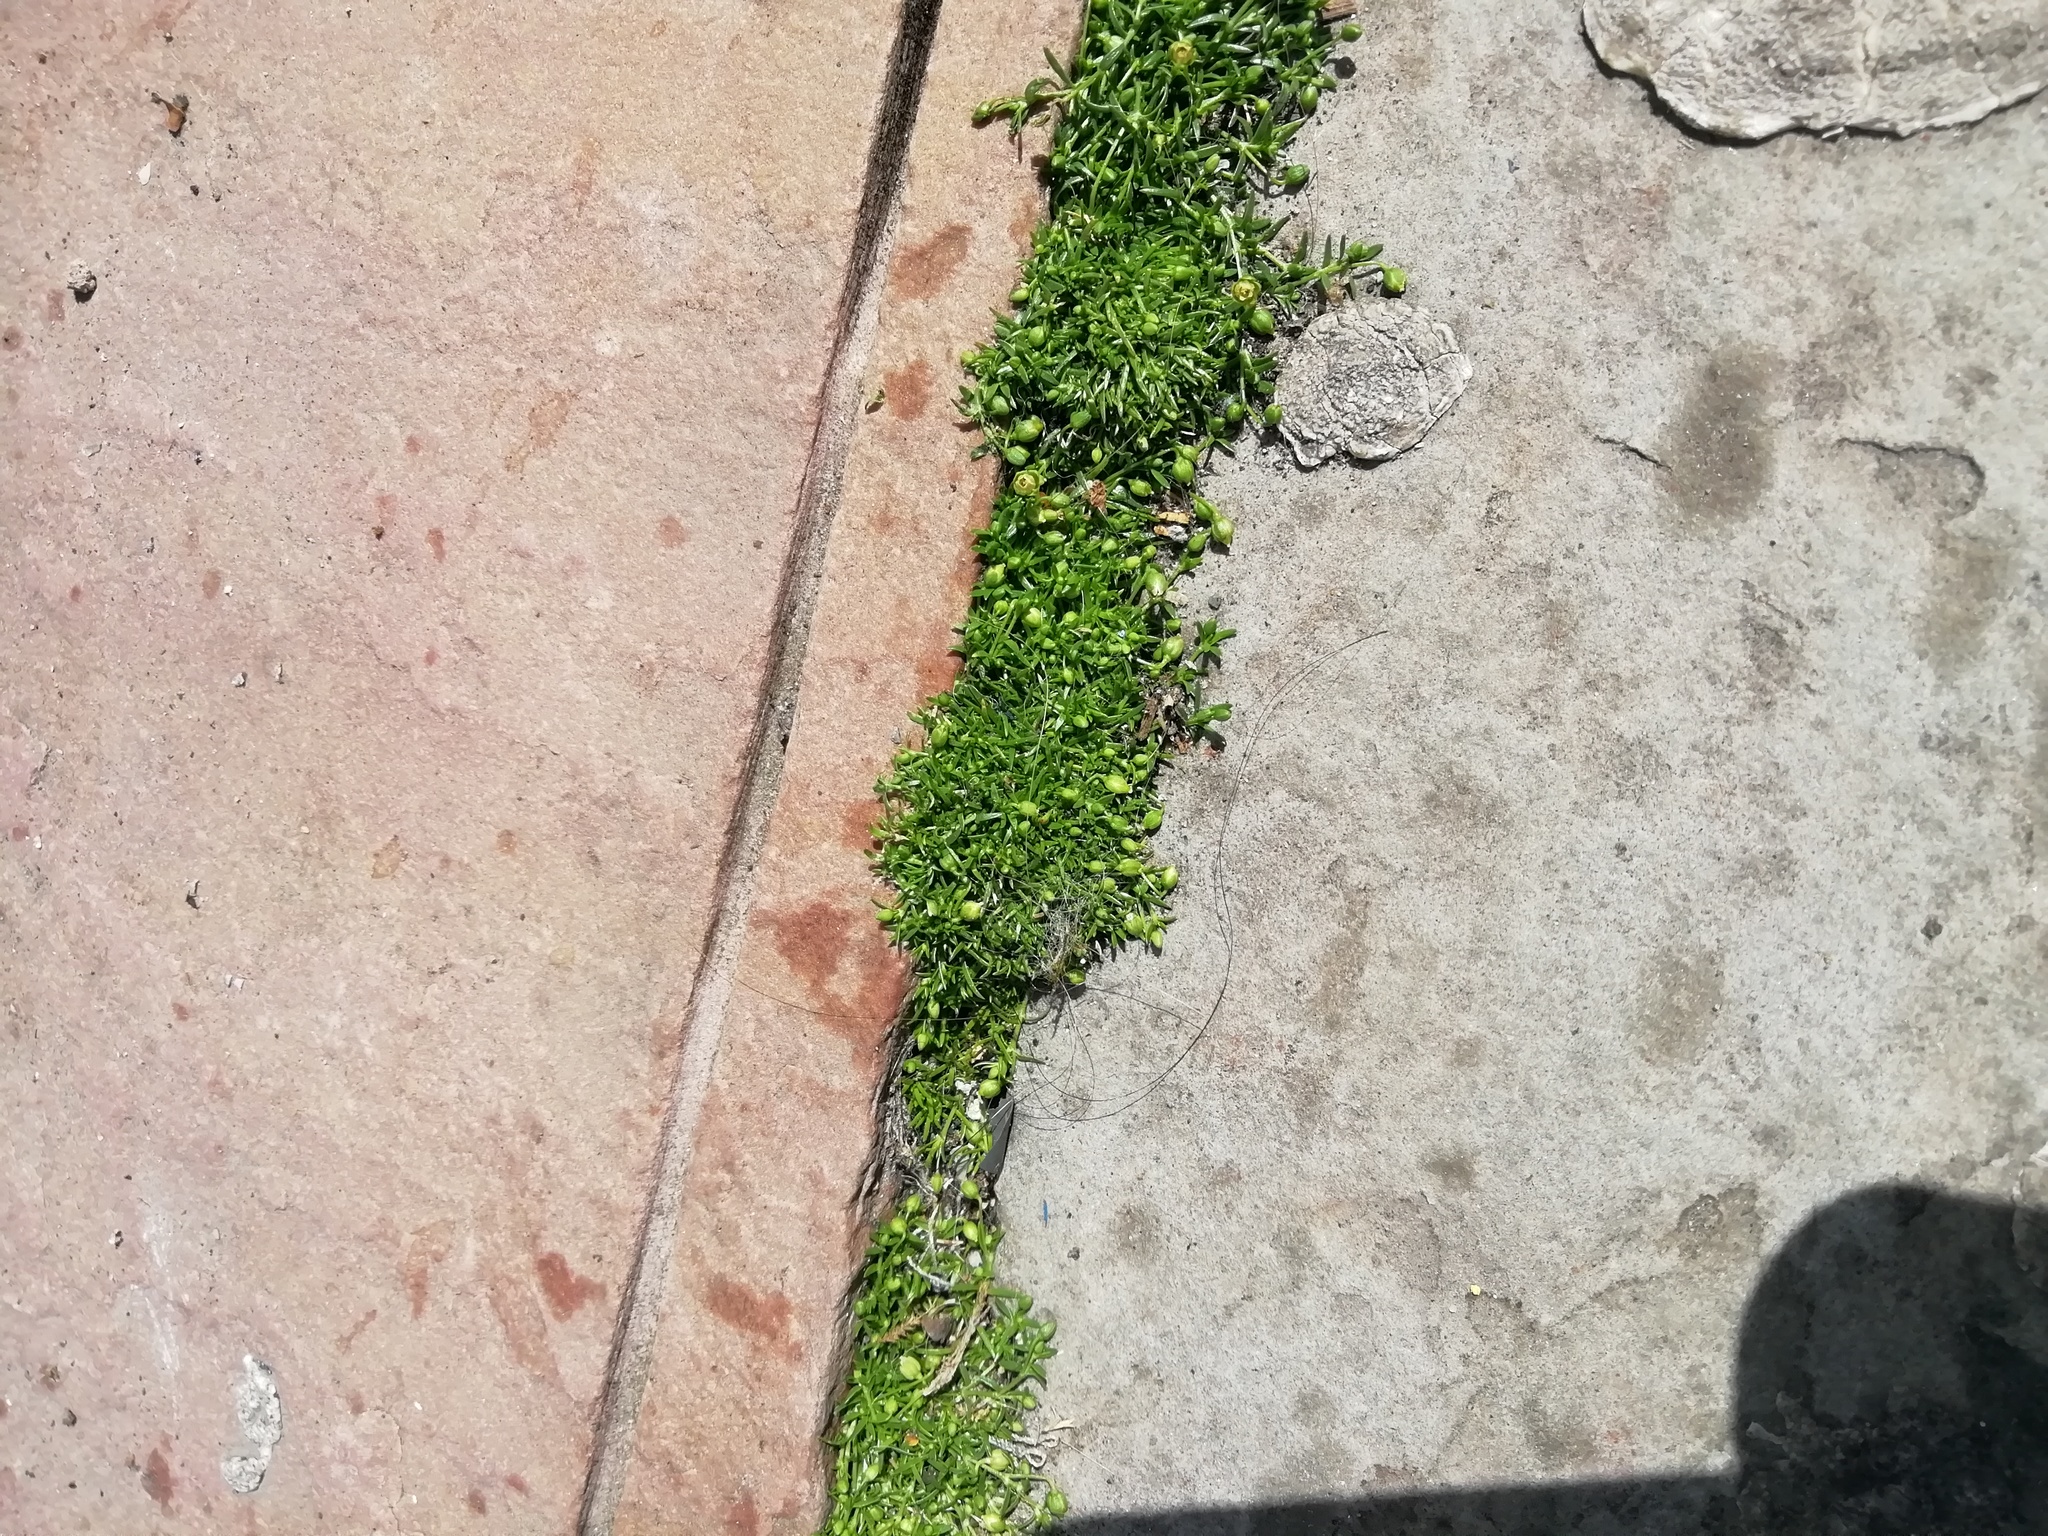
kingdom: Plantae
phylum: Tracheophyta
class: Magnoliopsida
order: Caryophyllales
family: Caryophyllaceae
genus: Sagina
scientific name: Sagina procumbens
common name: Procumbent pearlwort
